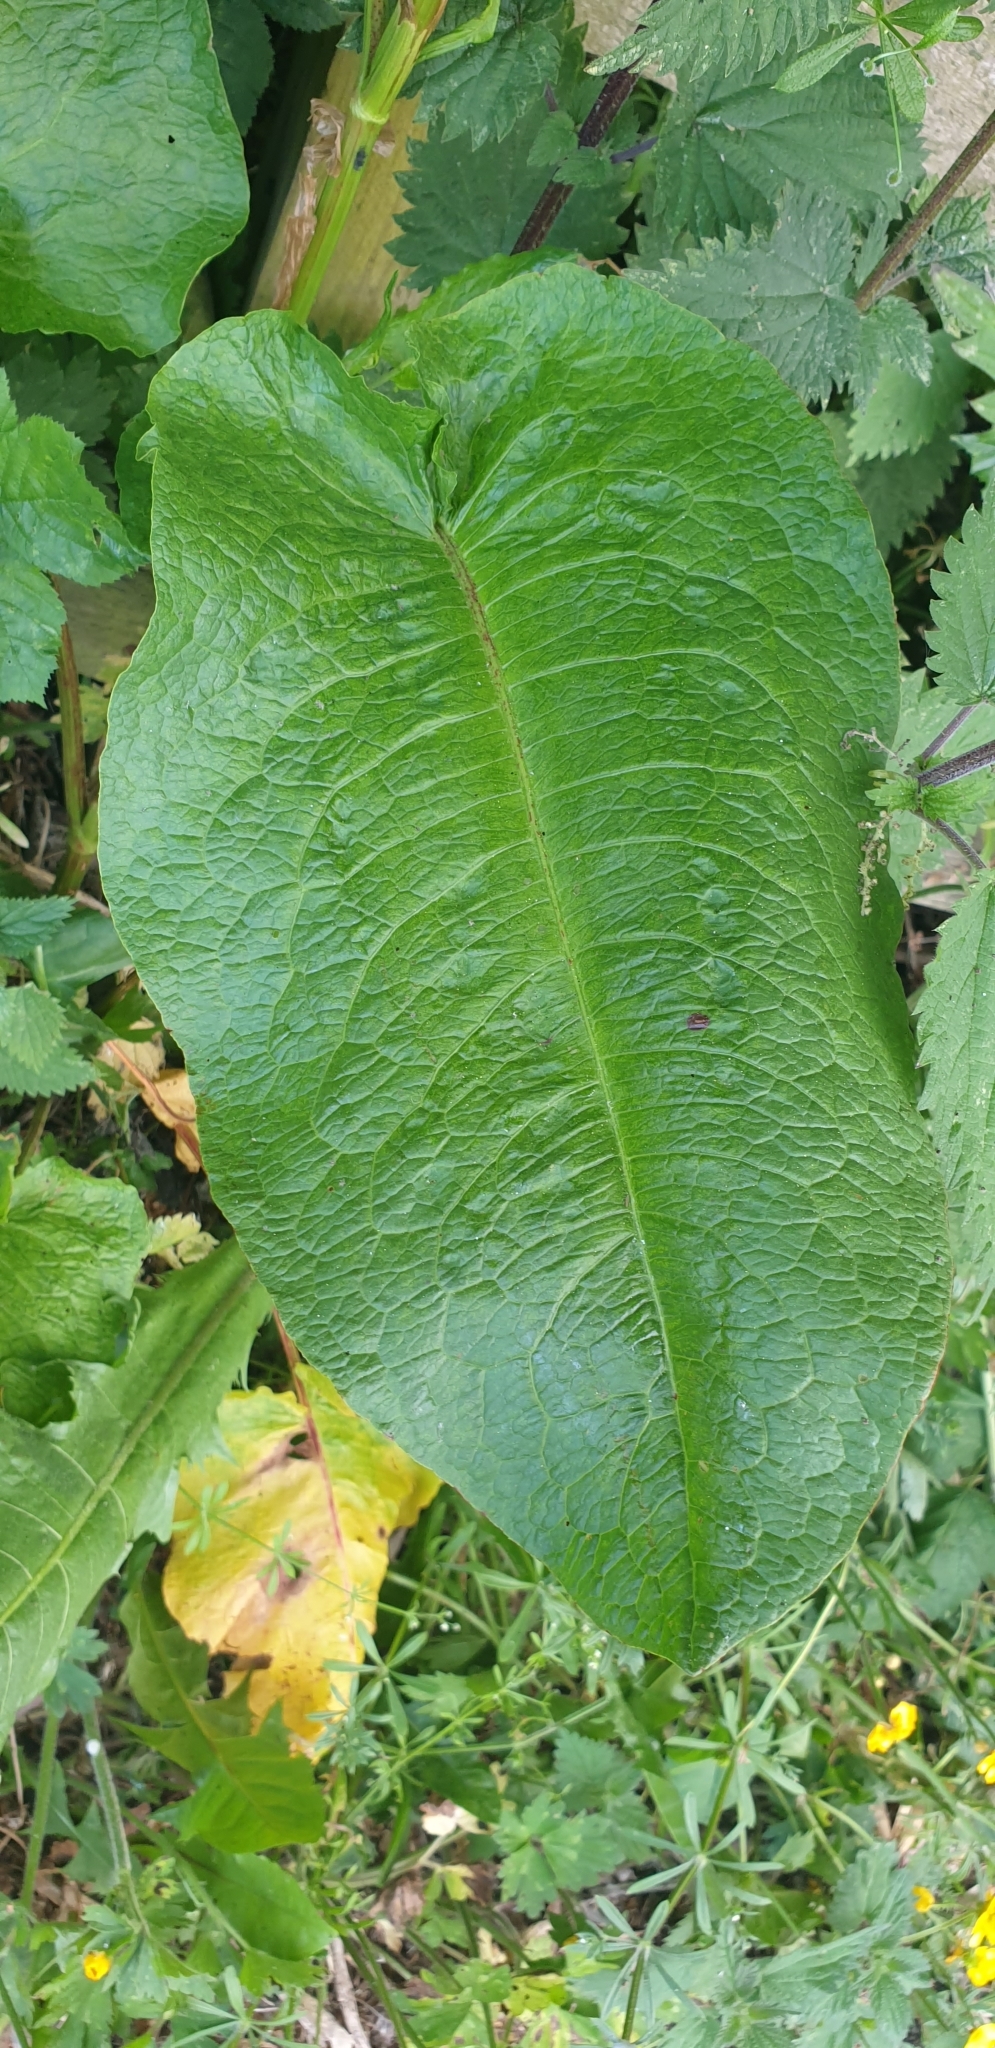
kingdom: Plantae
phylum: Tracheophyta
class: Magnoliopsida
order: Caryophyllales
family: Polygonaceae
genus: Rumex
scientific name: Rumex obtusifolius
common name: Bitter dock
